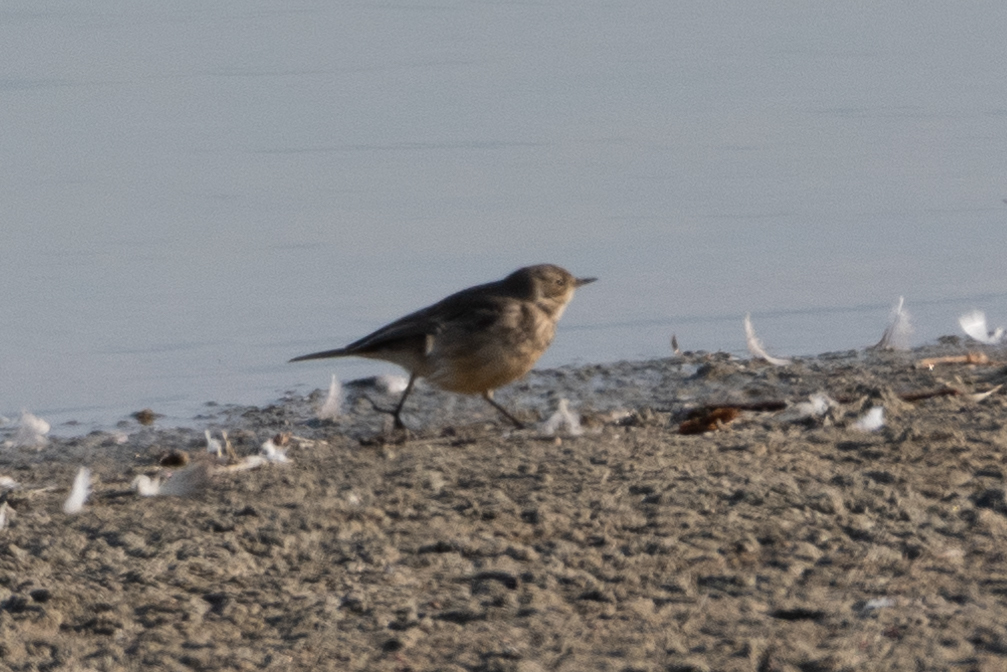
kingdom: Animalia
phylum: Chordata
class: Aves
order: Passeriformes
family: Motacillidae
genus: Anthus
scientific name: Anthus rubescens
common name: Buff-bellied pipit
